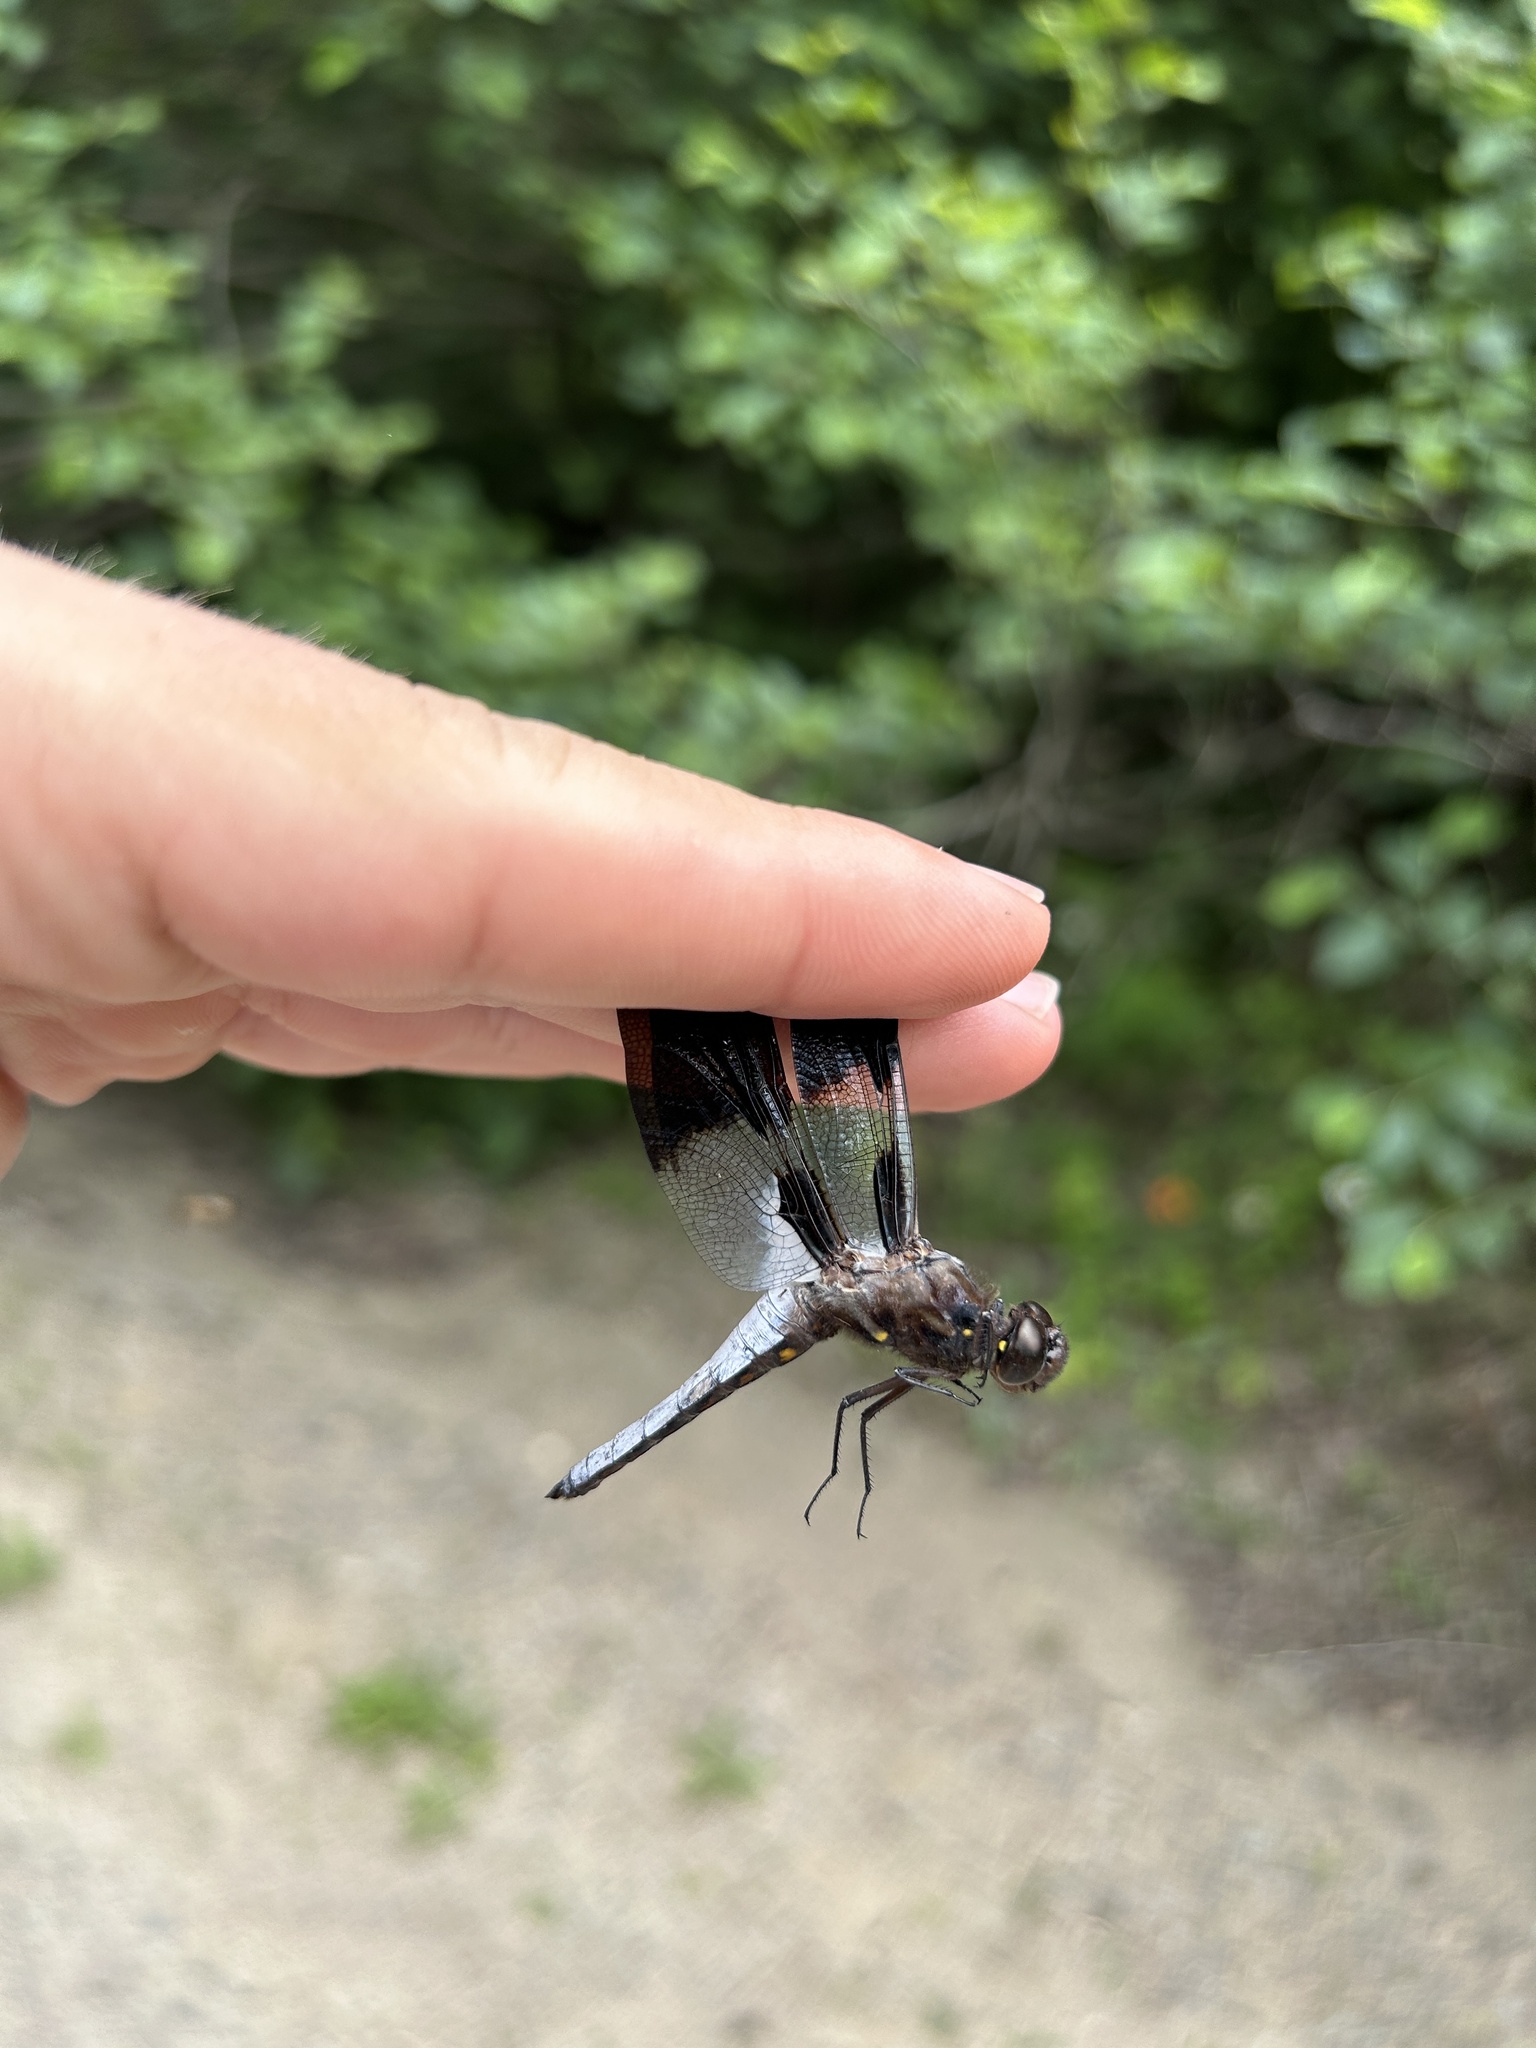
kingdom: Animalia
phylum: Arthropoda
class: Insecta
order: Odonata
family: Libellulidae
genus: Plathemis
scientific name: Plathemis lydia
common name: Common whitetail
